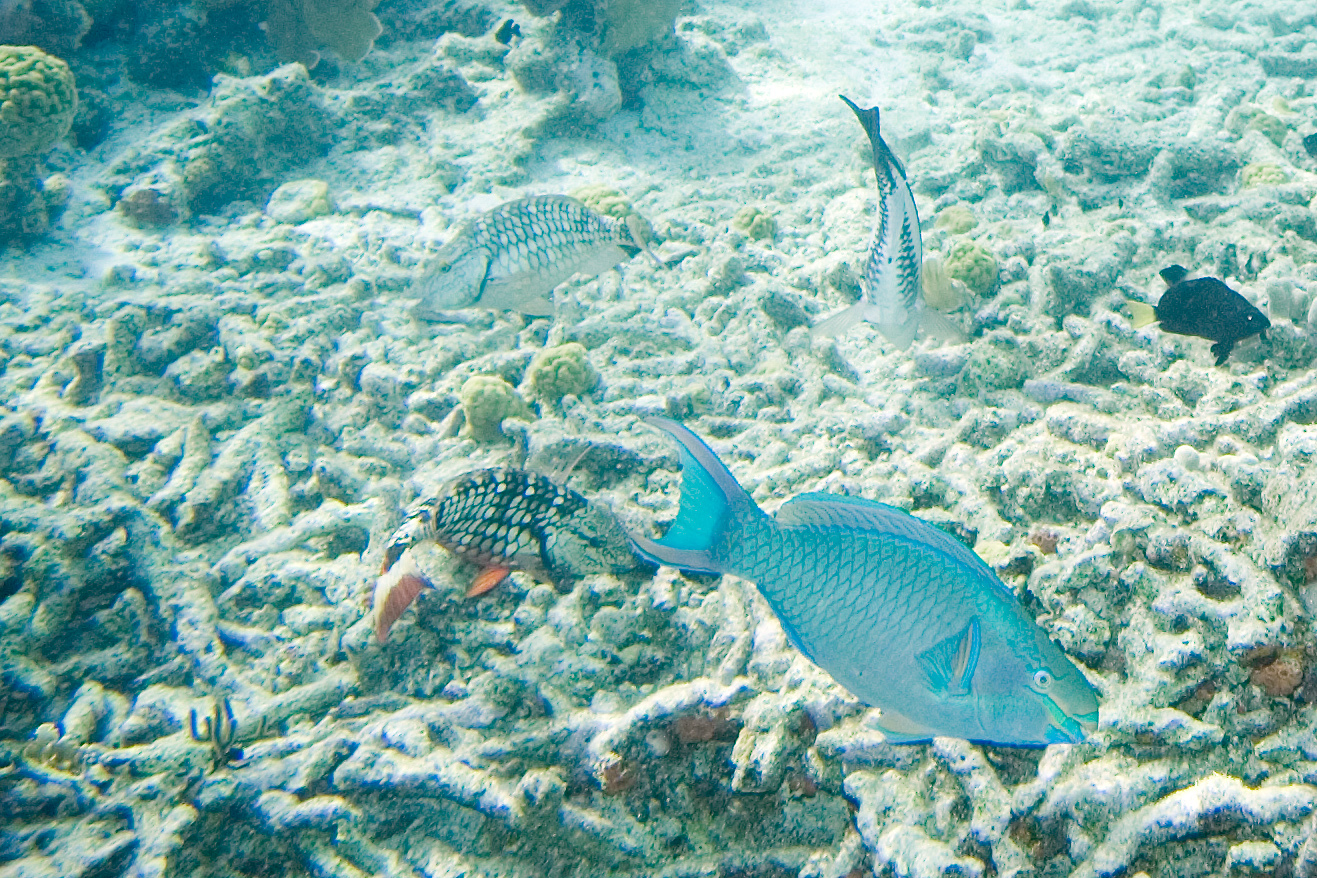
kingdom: Animalia
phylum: Chordata
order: Perciformes
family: Scaridae
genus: Scarus
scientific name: Scarus vetula
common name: Queen parrotfish
